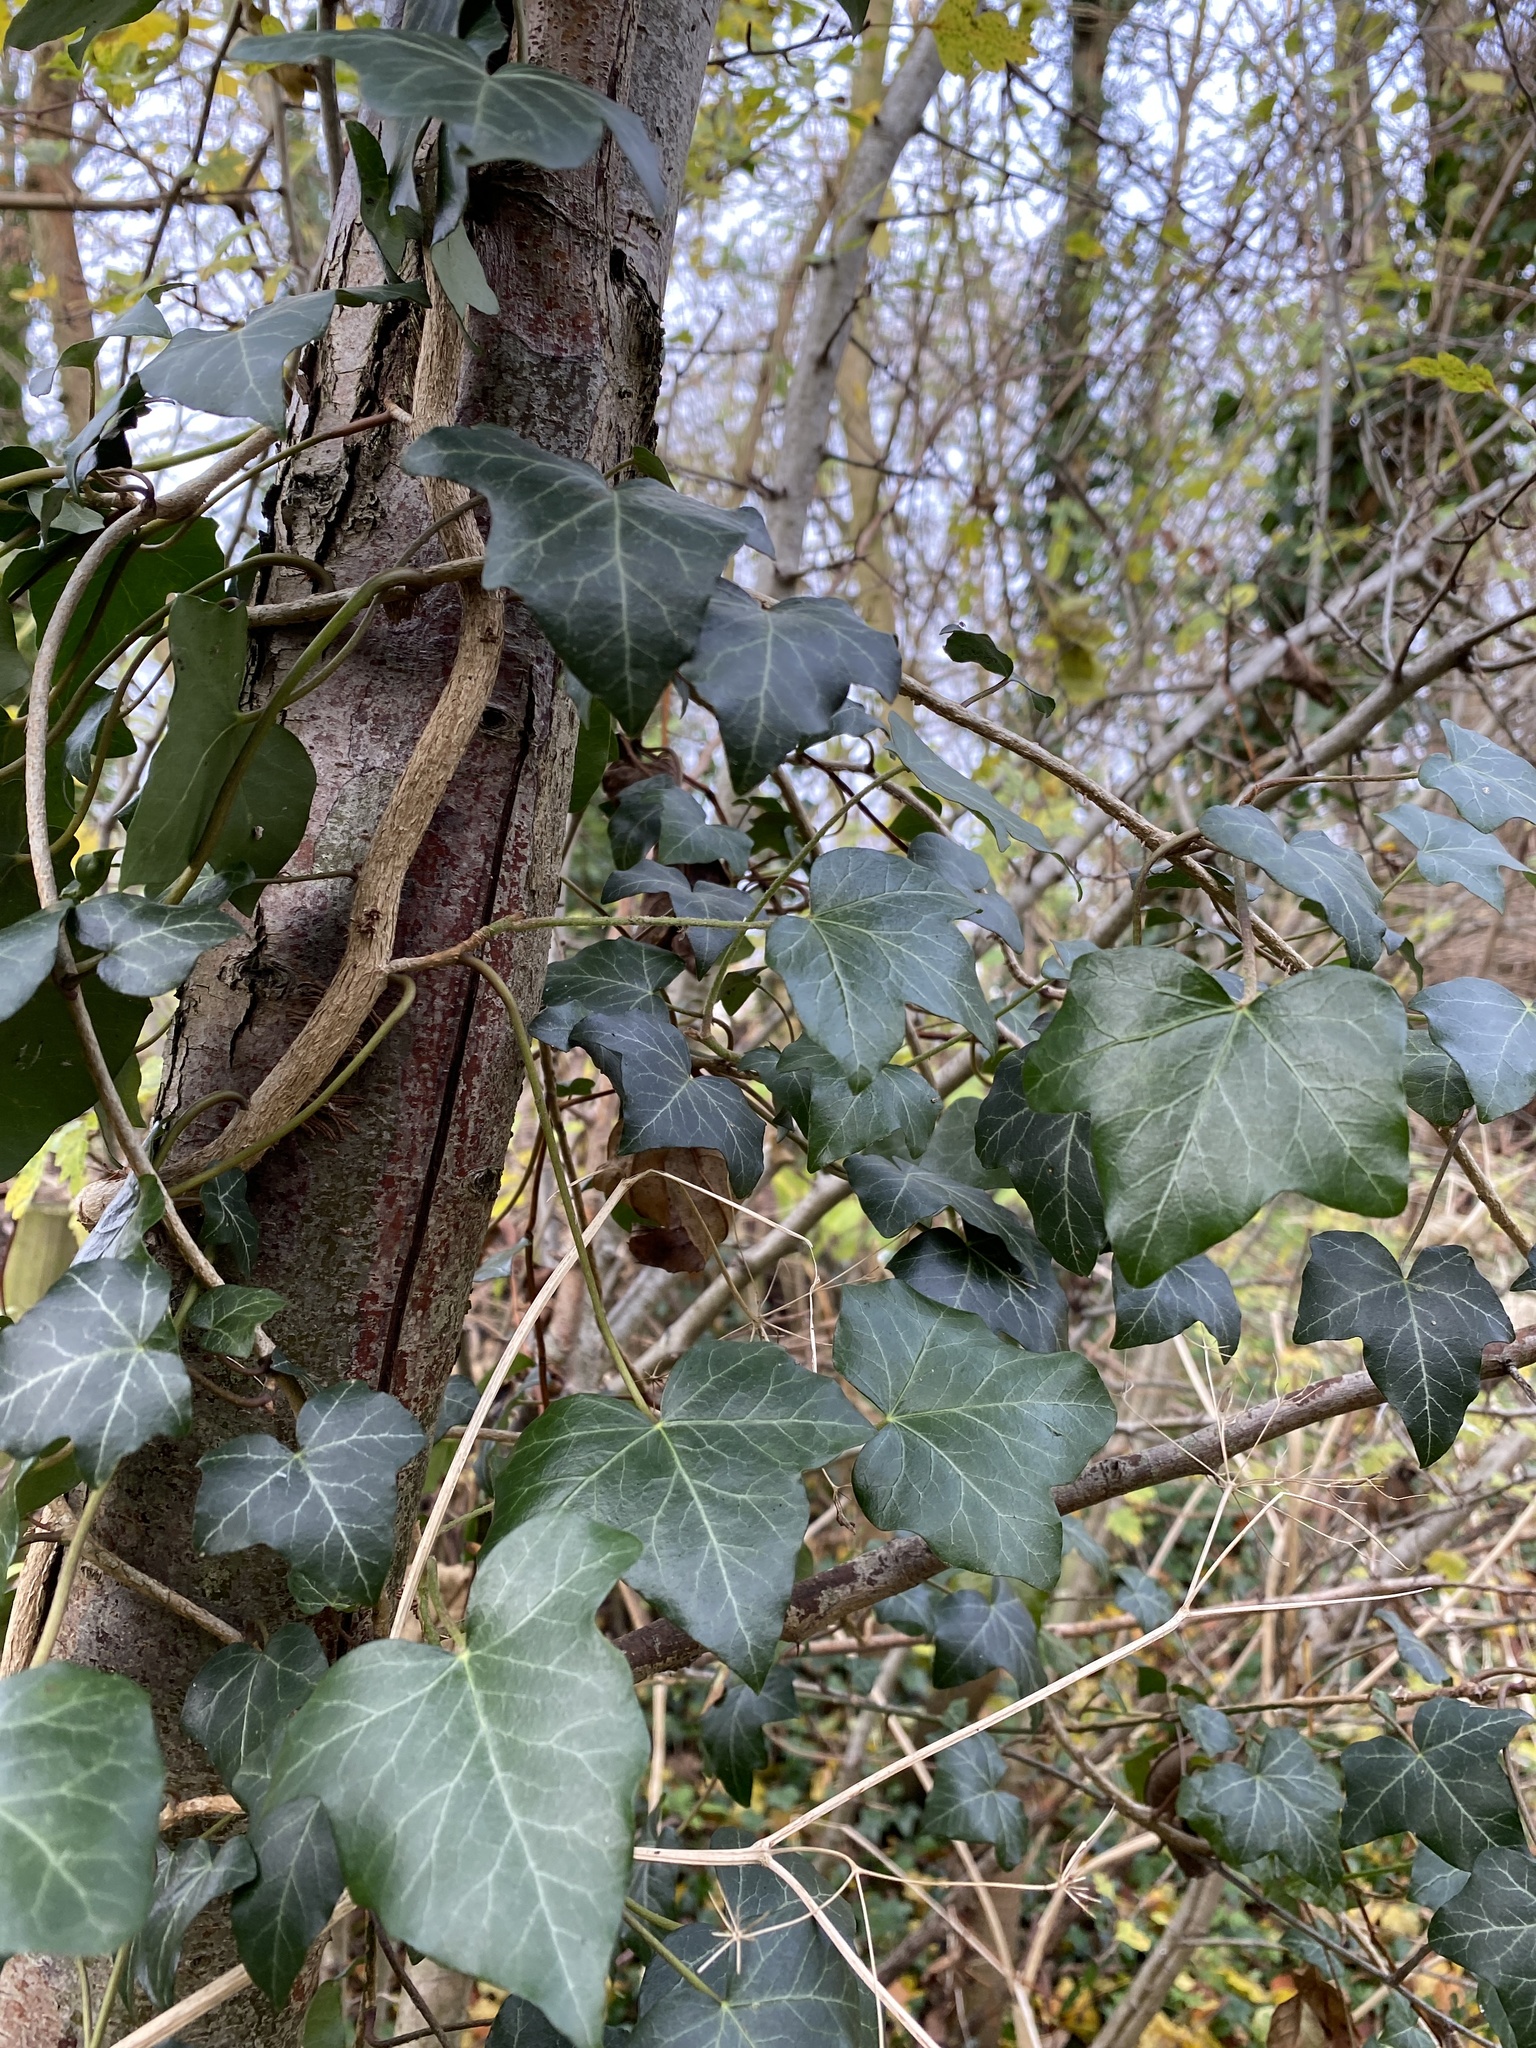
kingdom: Plantae
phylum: Tracheophyta
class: Magnoliopsida
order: Apiales
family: Araliaceae
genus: Hedera
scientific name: Hedera helix
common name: Ivy
